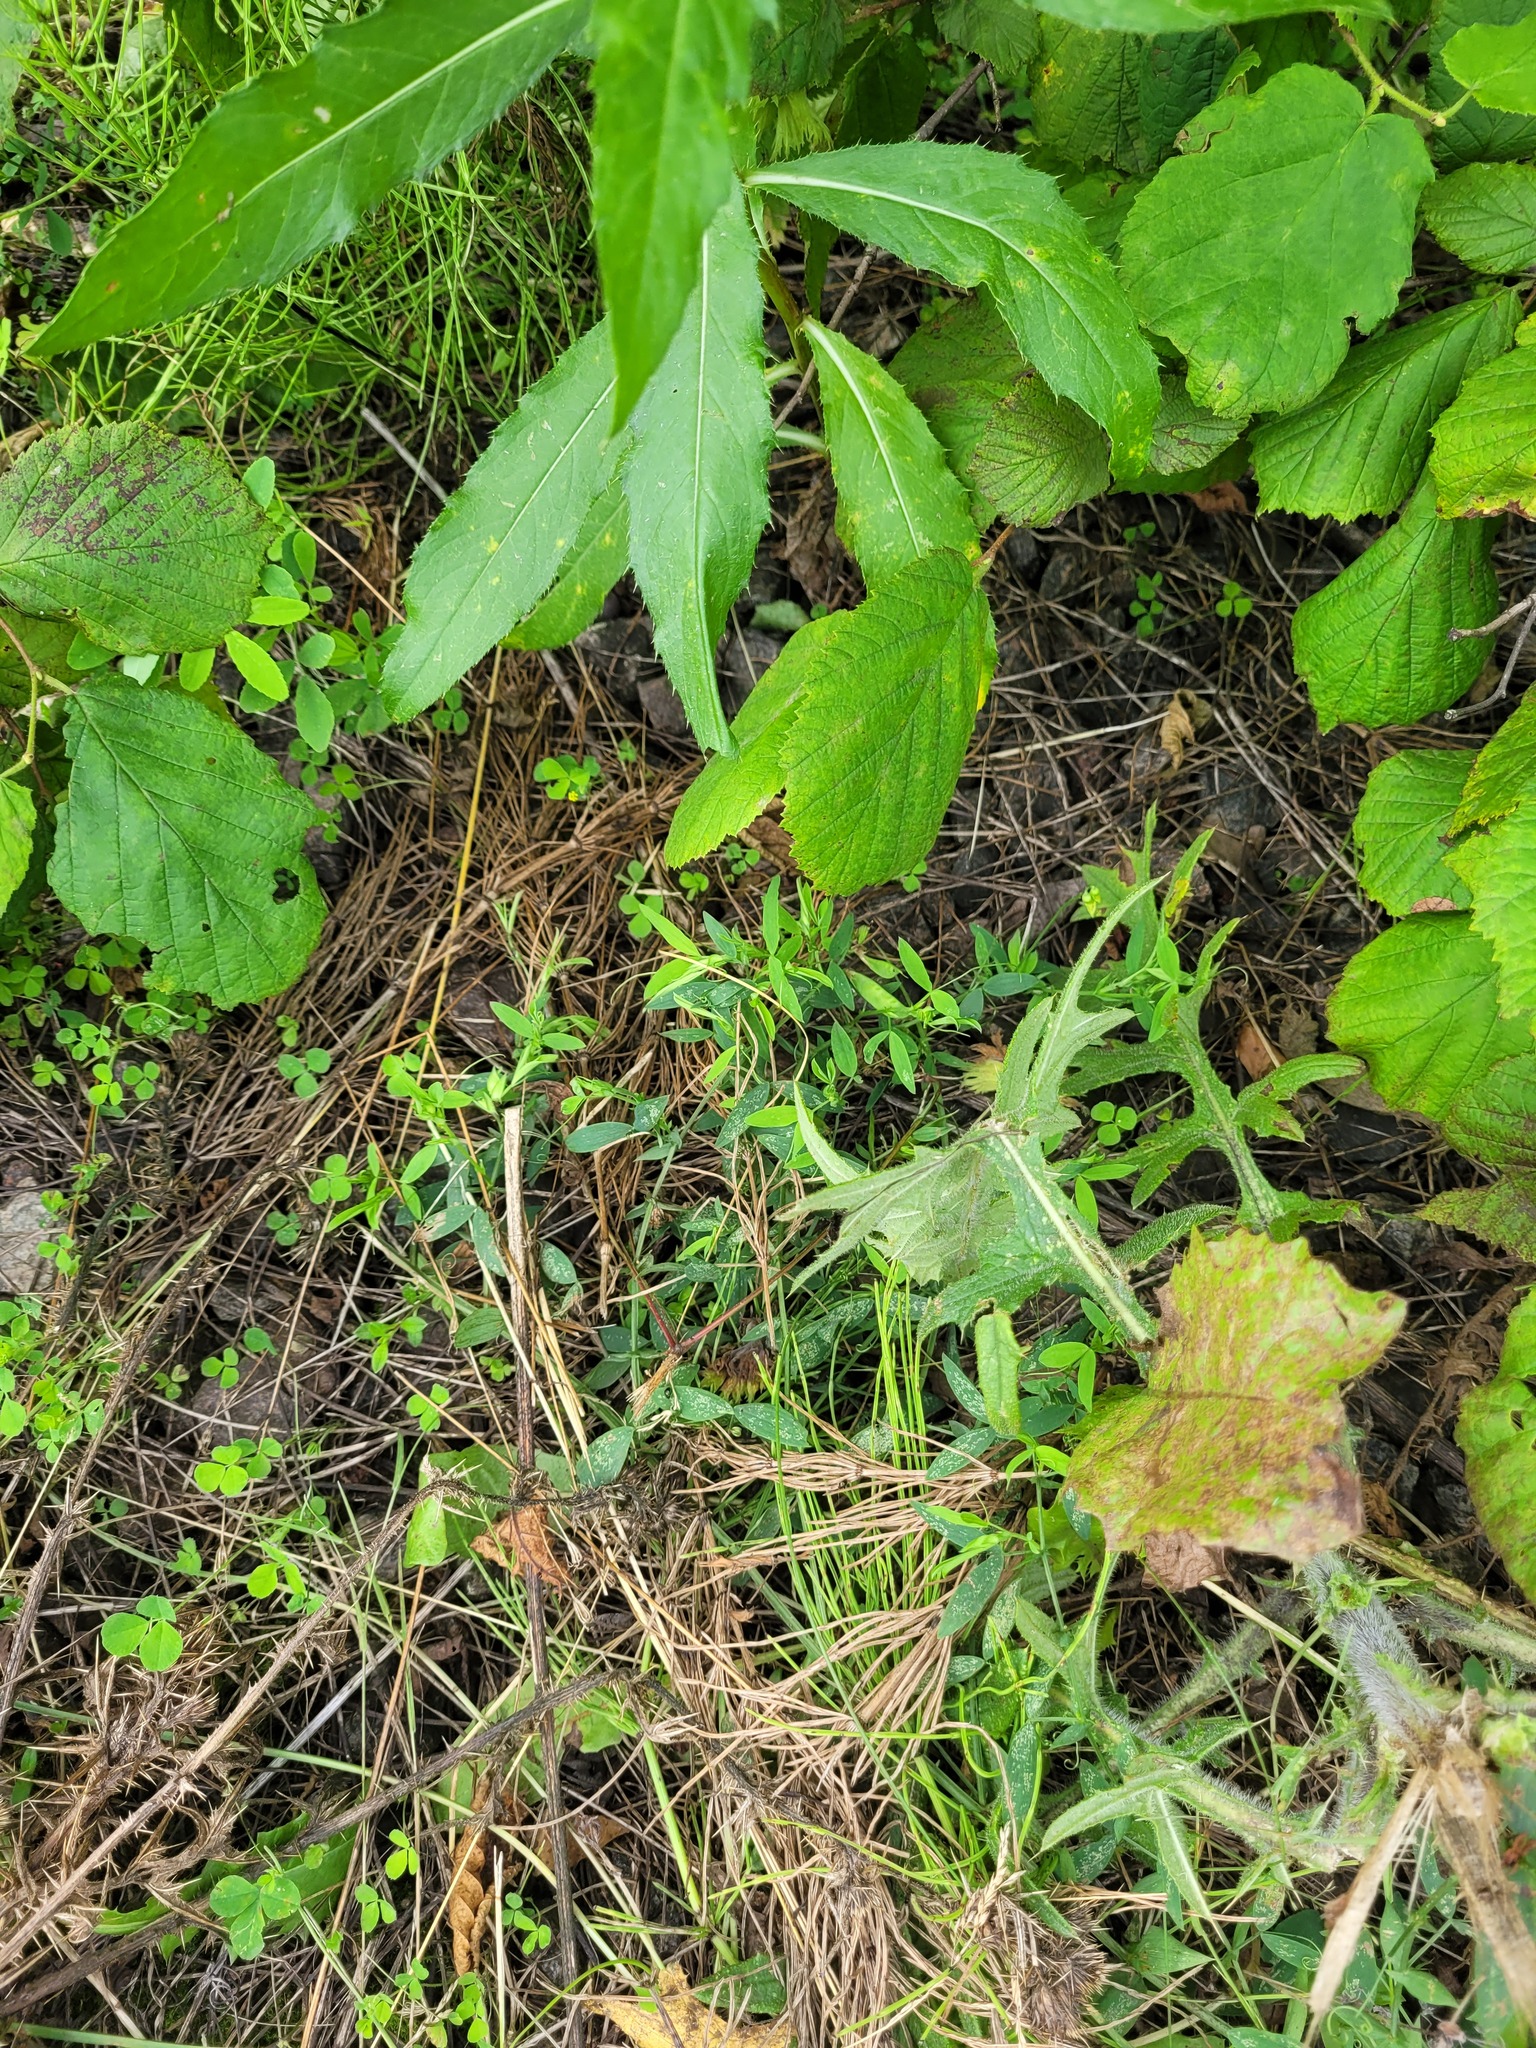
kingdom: Plantae
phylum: Tracheophyta
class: Magnoliopsida
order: Fabales
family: Fabaceae
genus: Lathyrus
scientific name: Lathyrus pratensis
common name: Meadow vetchling
